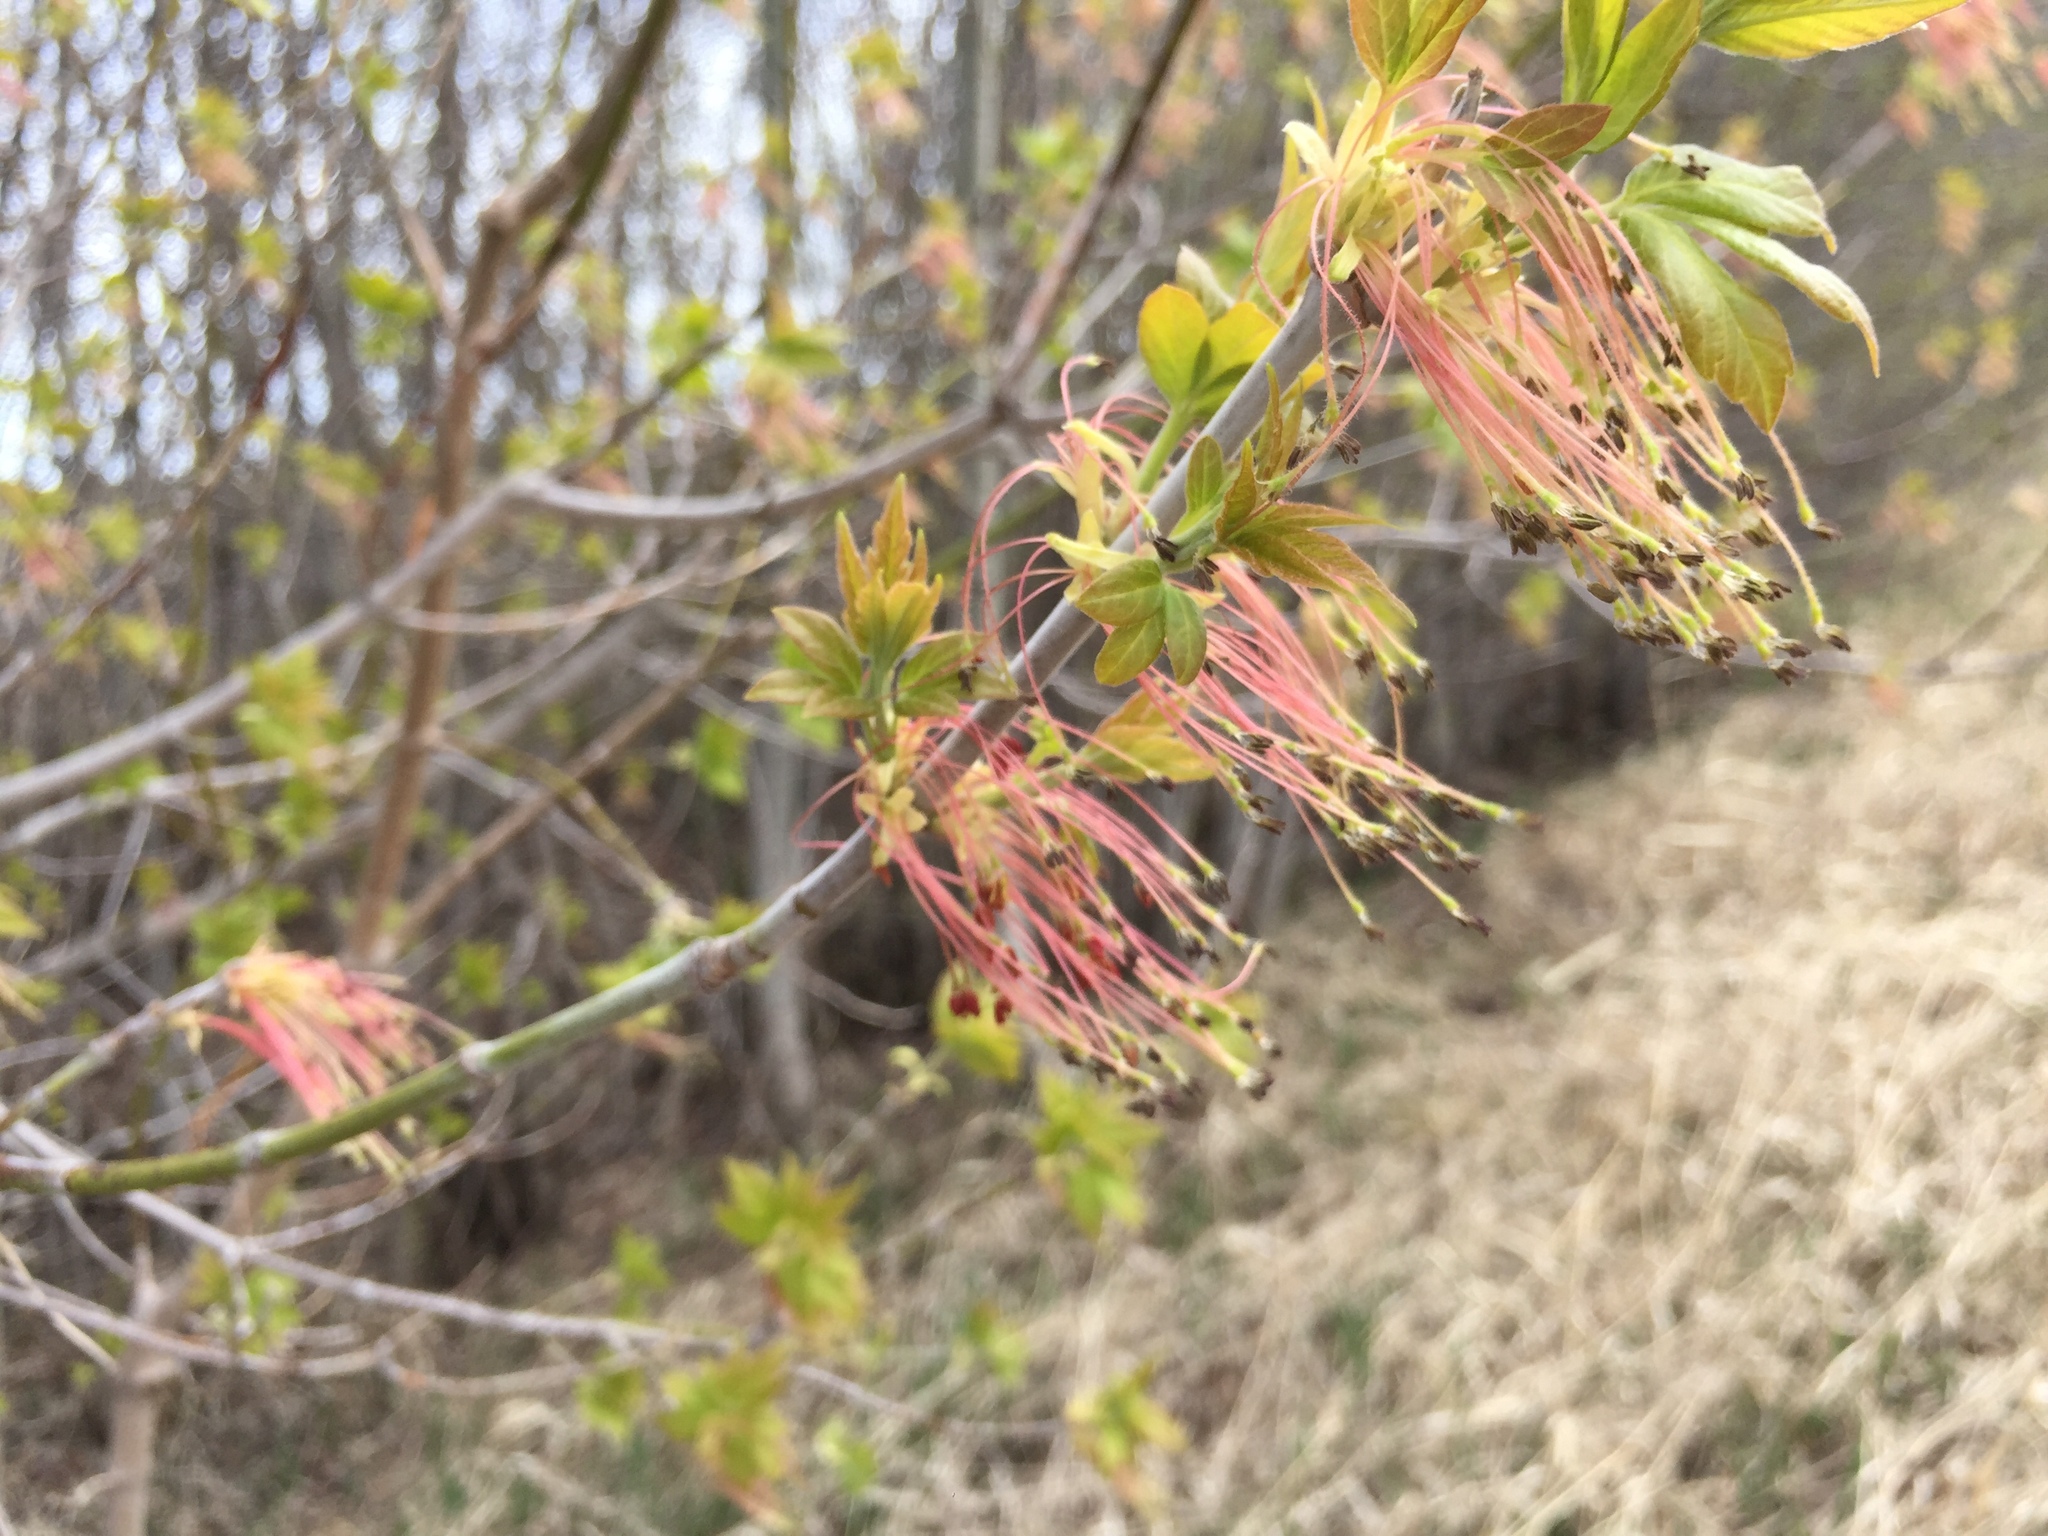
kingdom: Plantae
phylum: Tracheophyta
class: Magnoliopsida
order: Sapindales
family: Sapindaceae
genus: Acer
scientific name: Acer negundo
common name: Ashleaf maple
